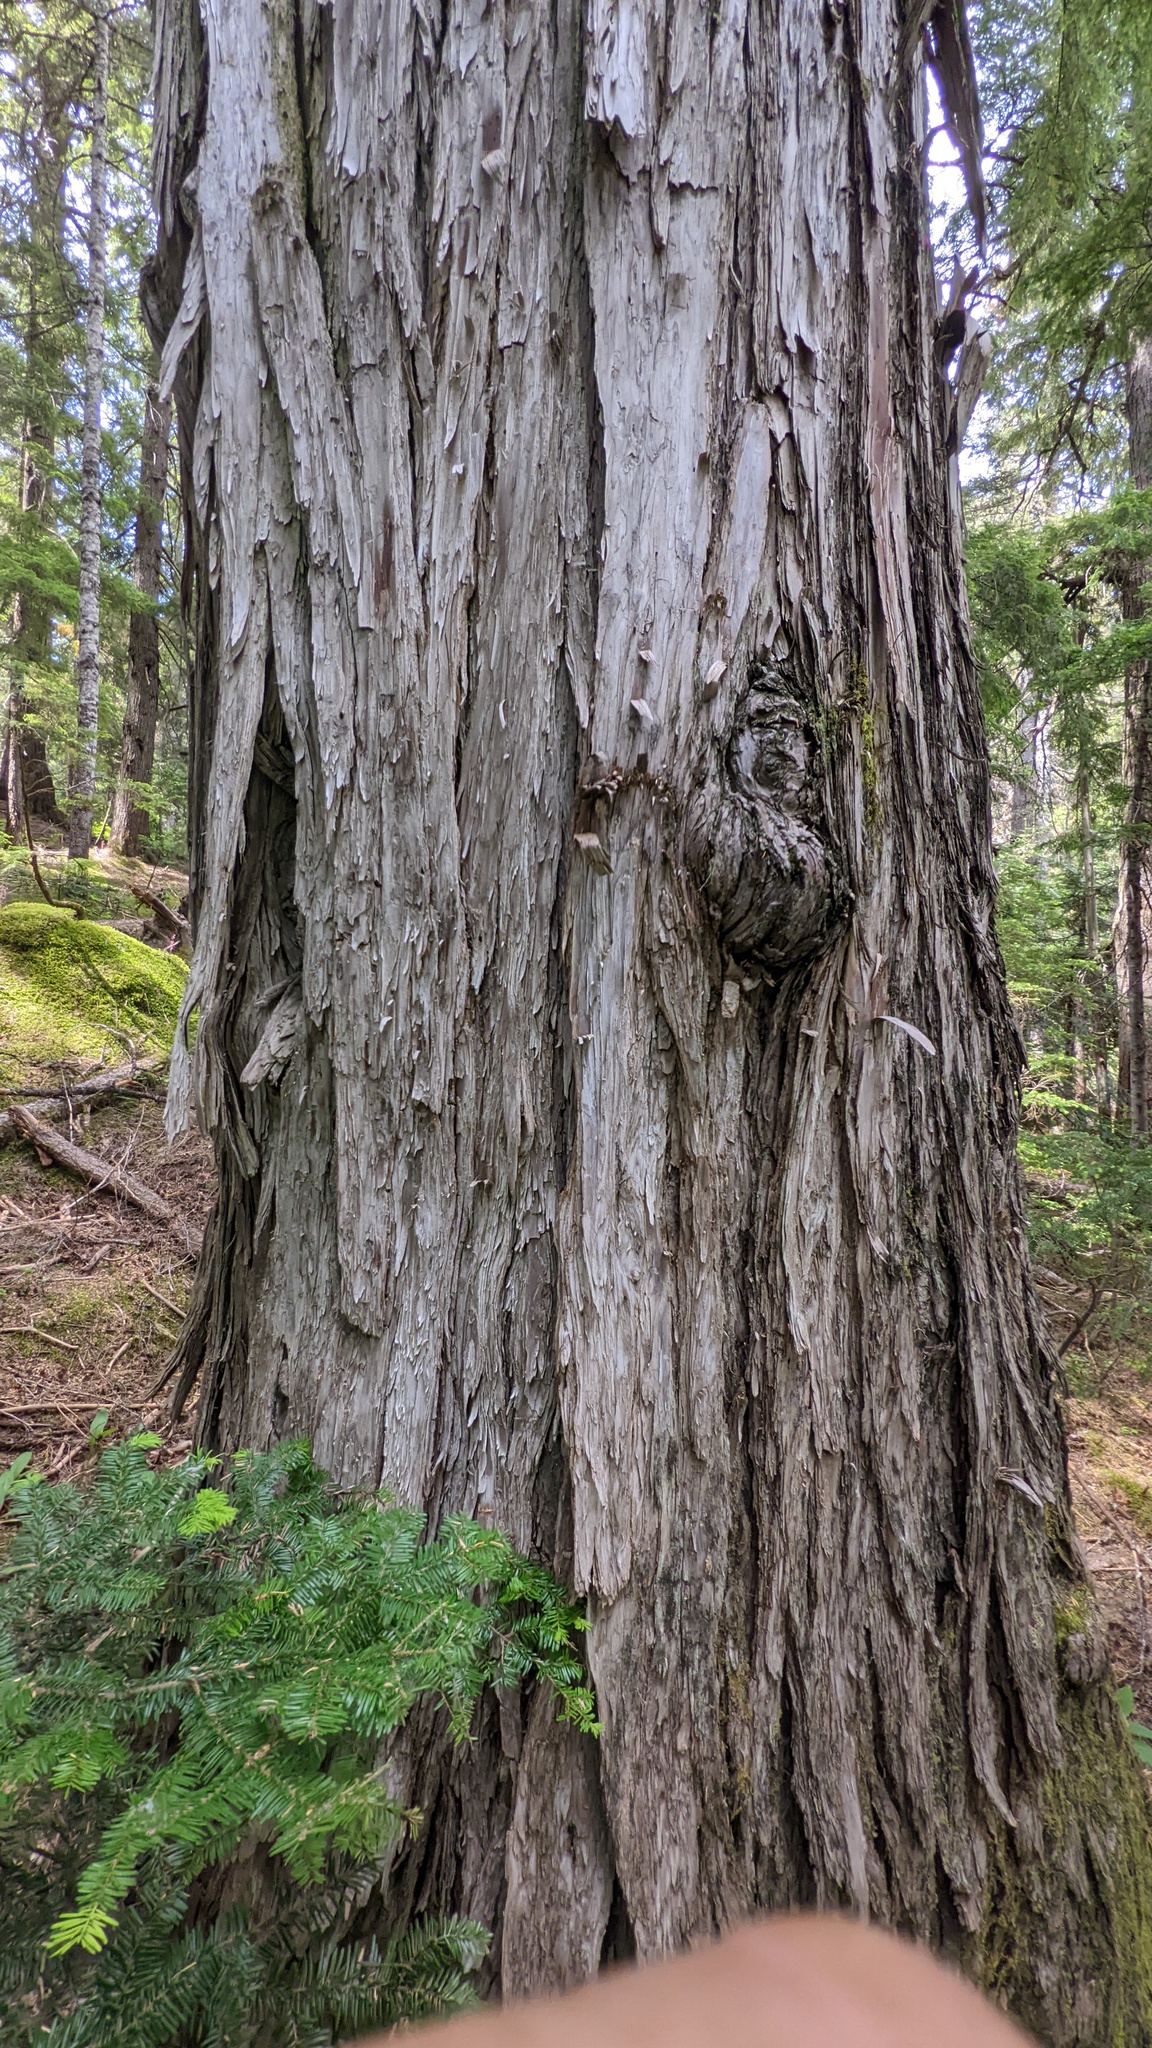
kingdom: Plantae
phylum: Tracheophyta
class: Pinopsida
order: Pinales
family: Cupressaceae
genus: Xanthocyparis
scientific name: Xanthocyparis nootkatensis
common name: Nootka cypress
